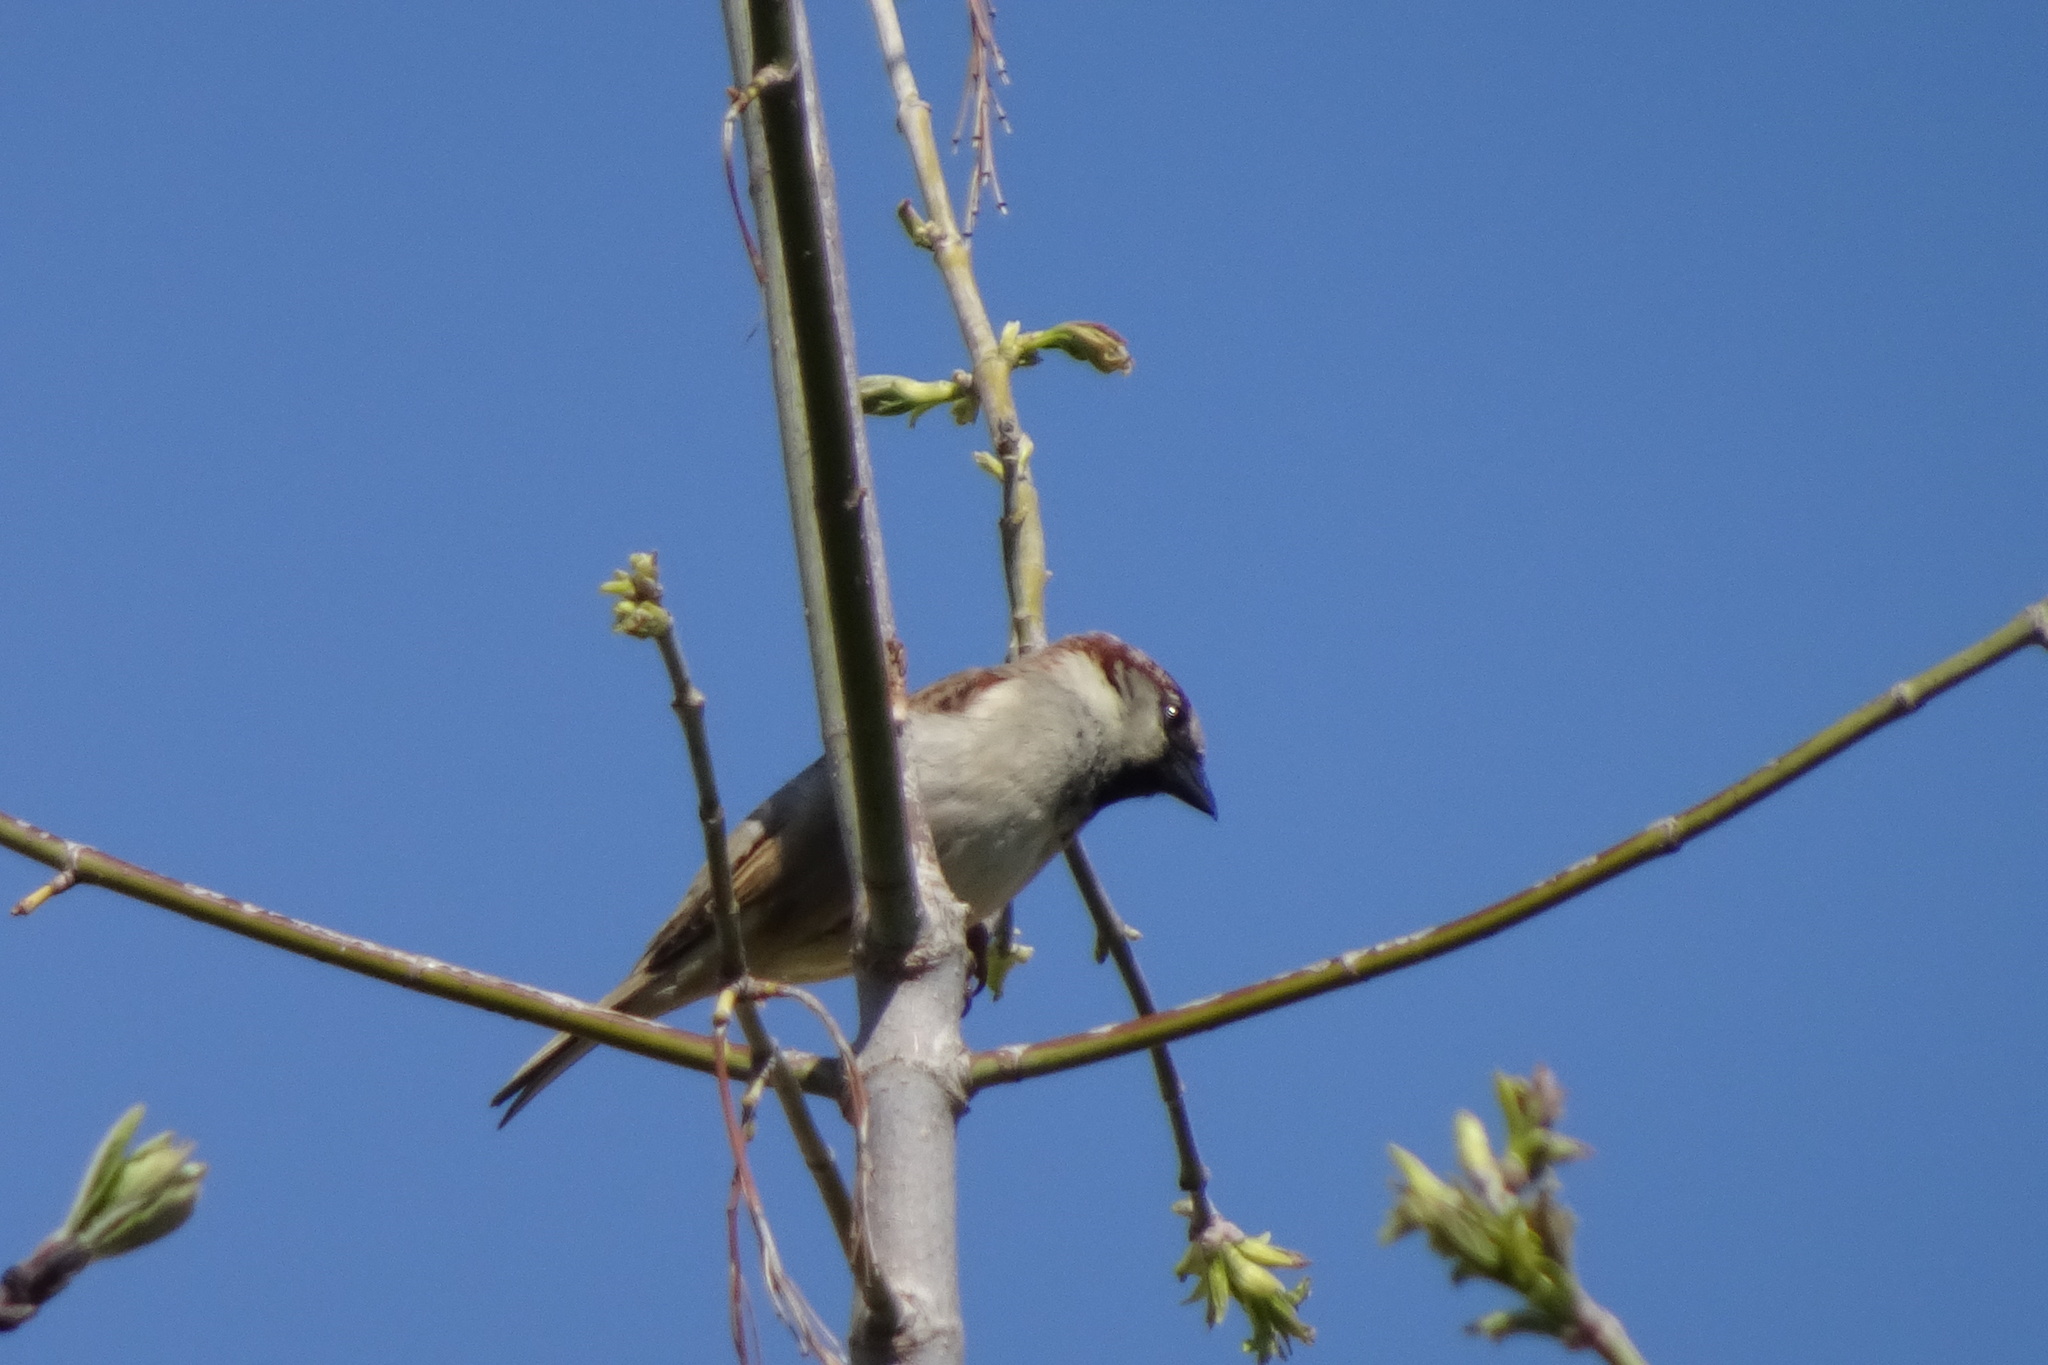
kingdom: Animalia
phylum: Chordata
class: Aves
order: Passeriformes
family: Passeridae
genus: Passer
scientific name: Passer montanus
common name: Eurasian tree sparrow
